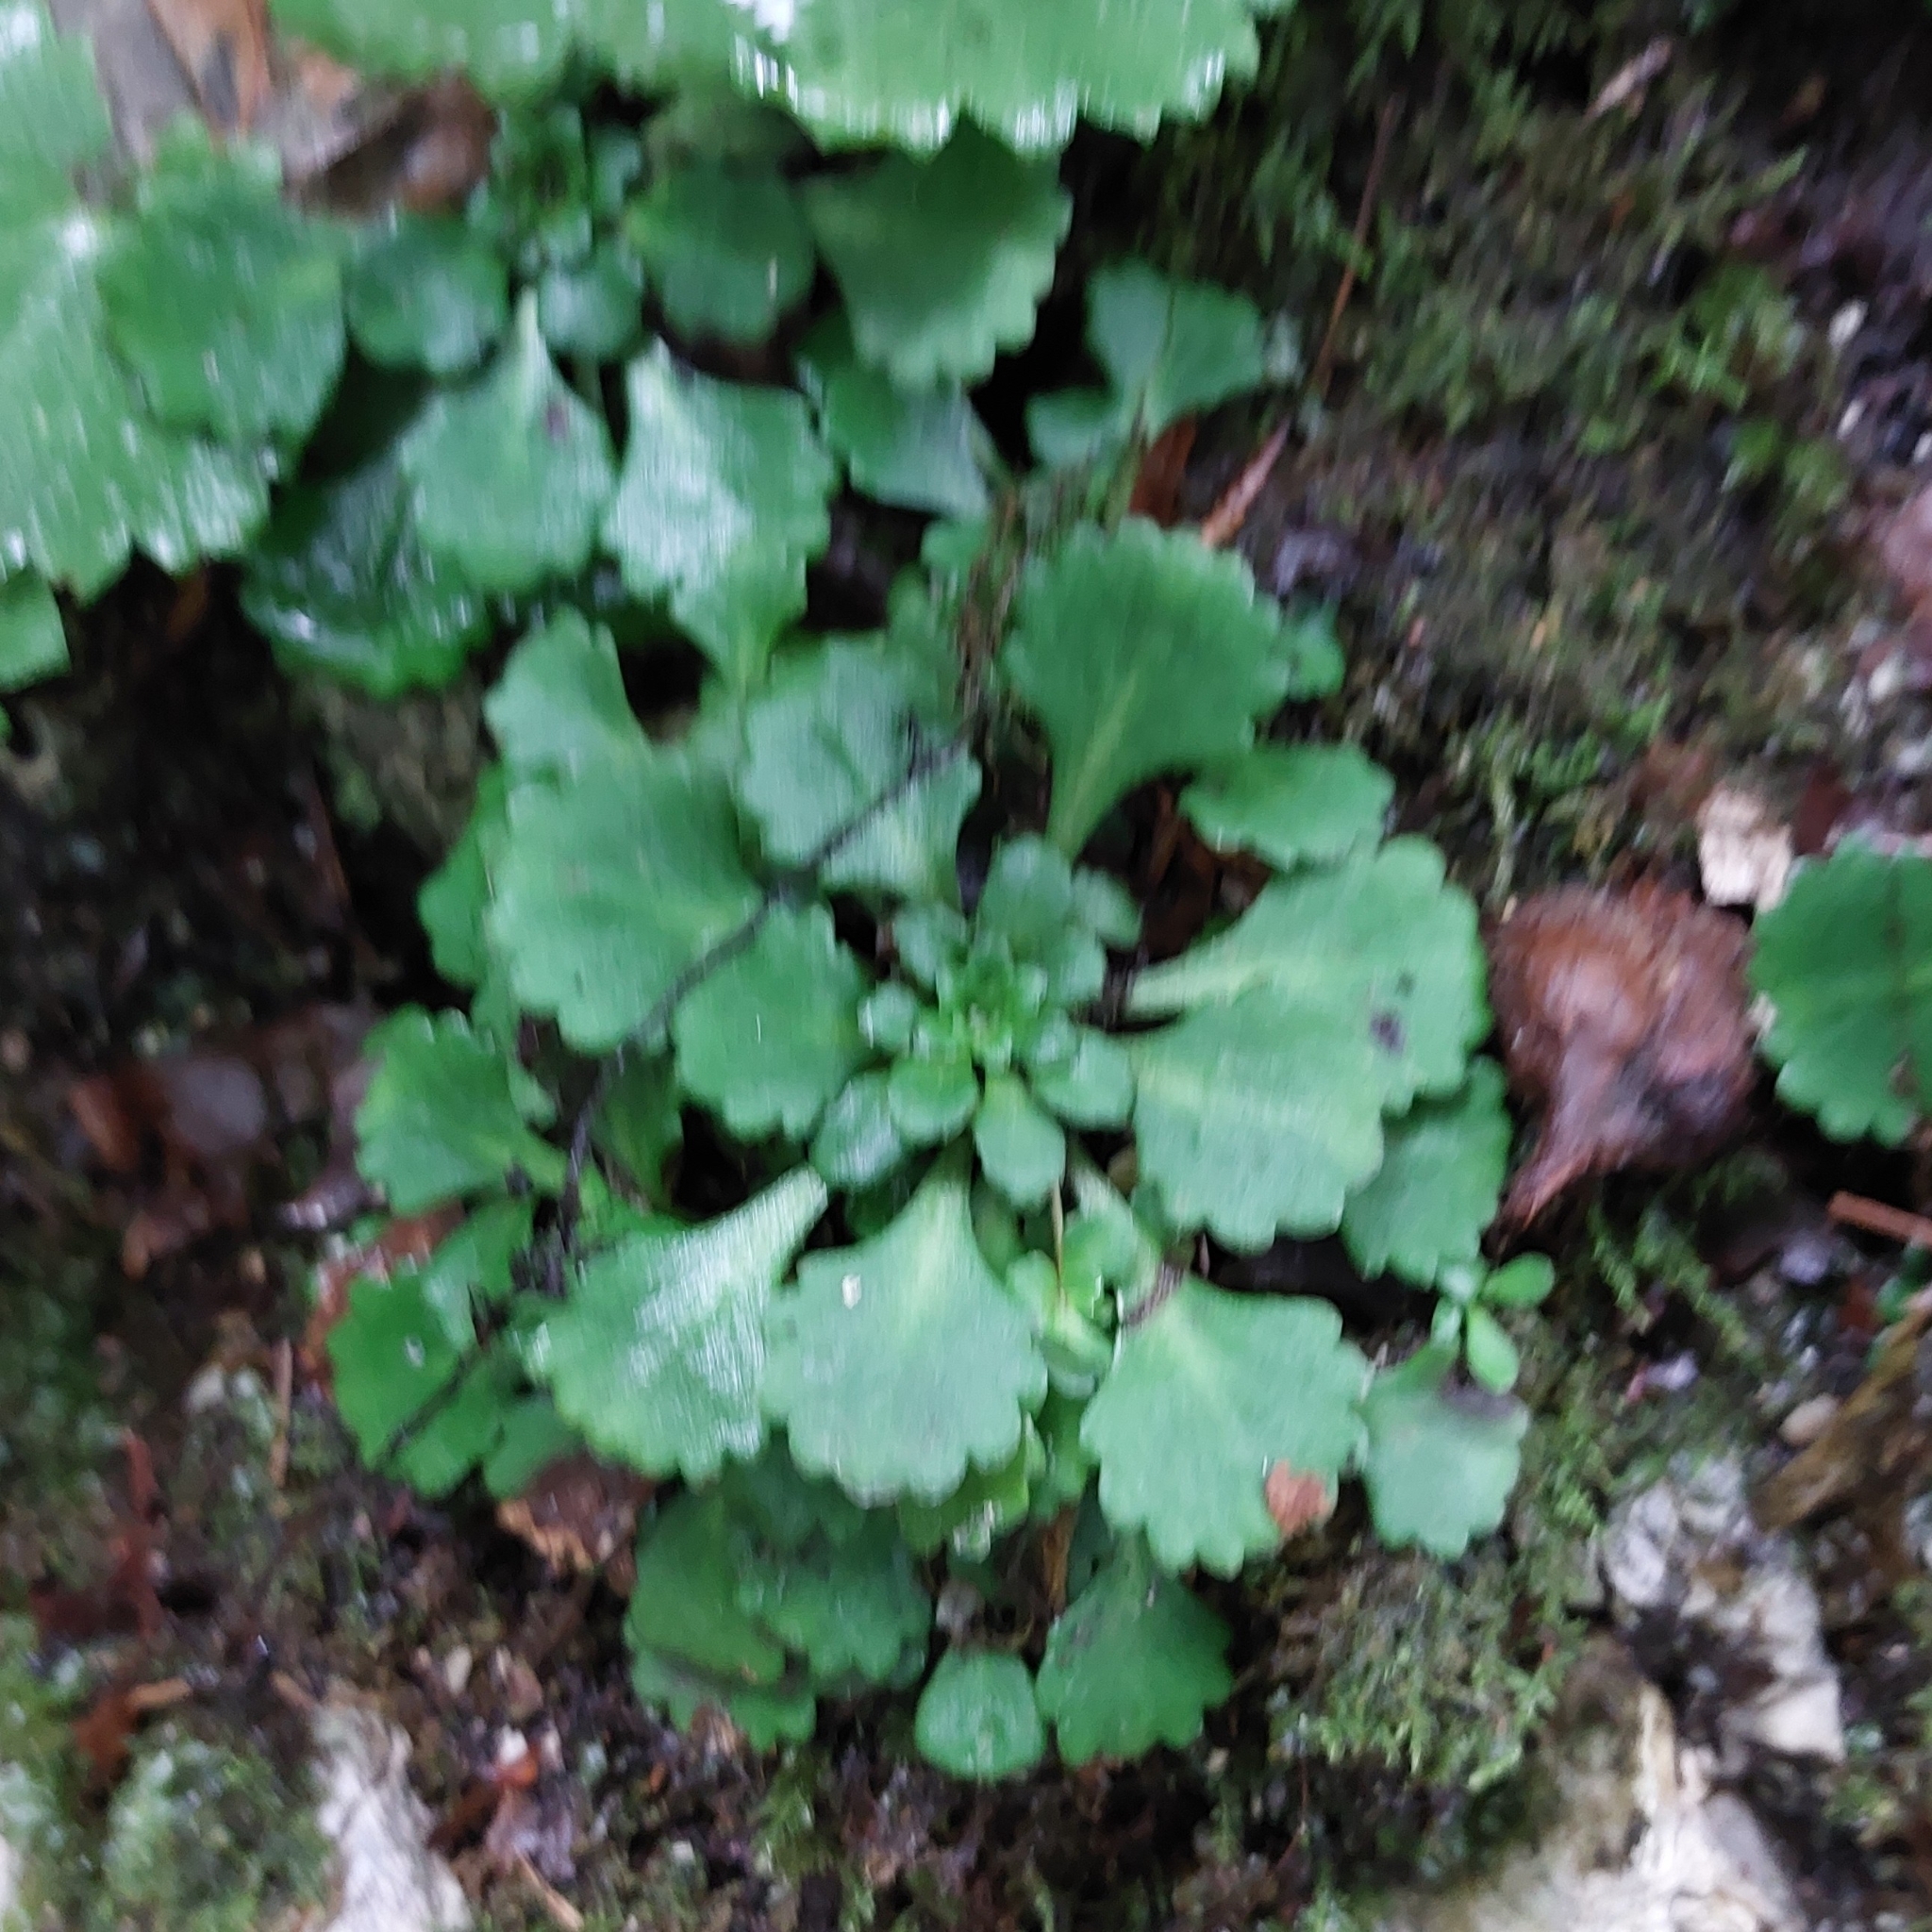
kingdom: Plantae
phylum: Tracheophyta
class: Magnoliopsida
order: Saxifragales
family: Saxifragaceae
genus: Saxifraga
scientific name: Saxifraga cuneifolia
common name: Lesser londonpride
